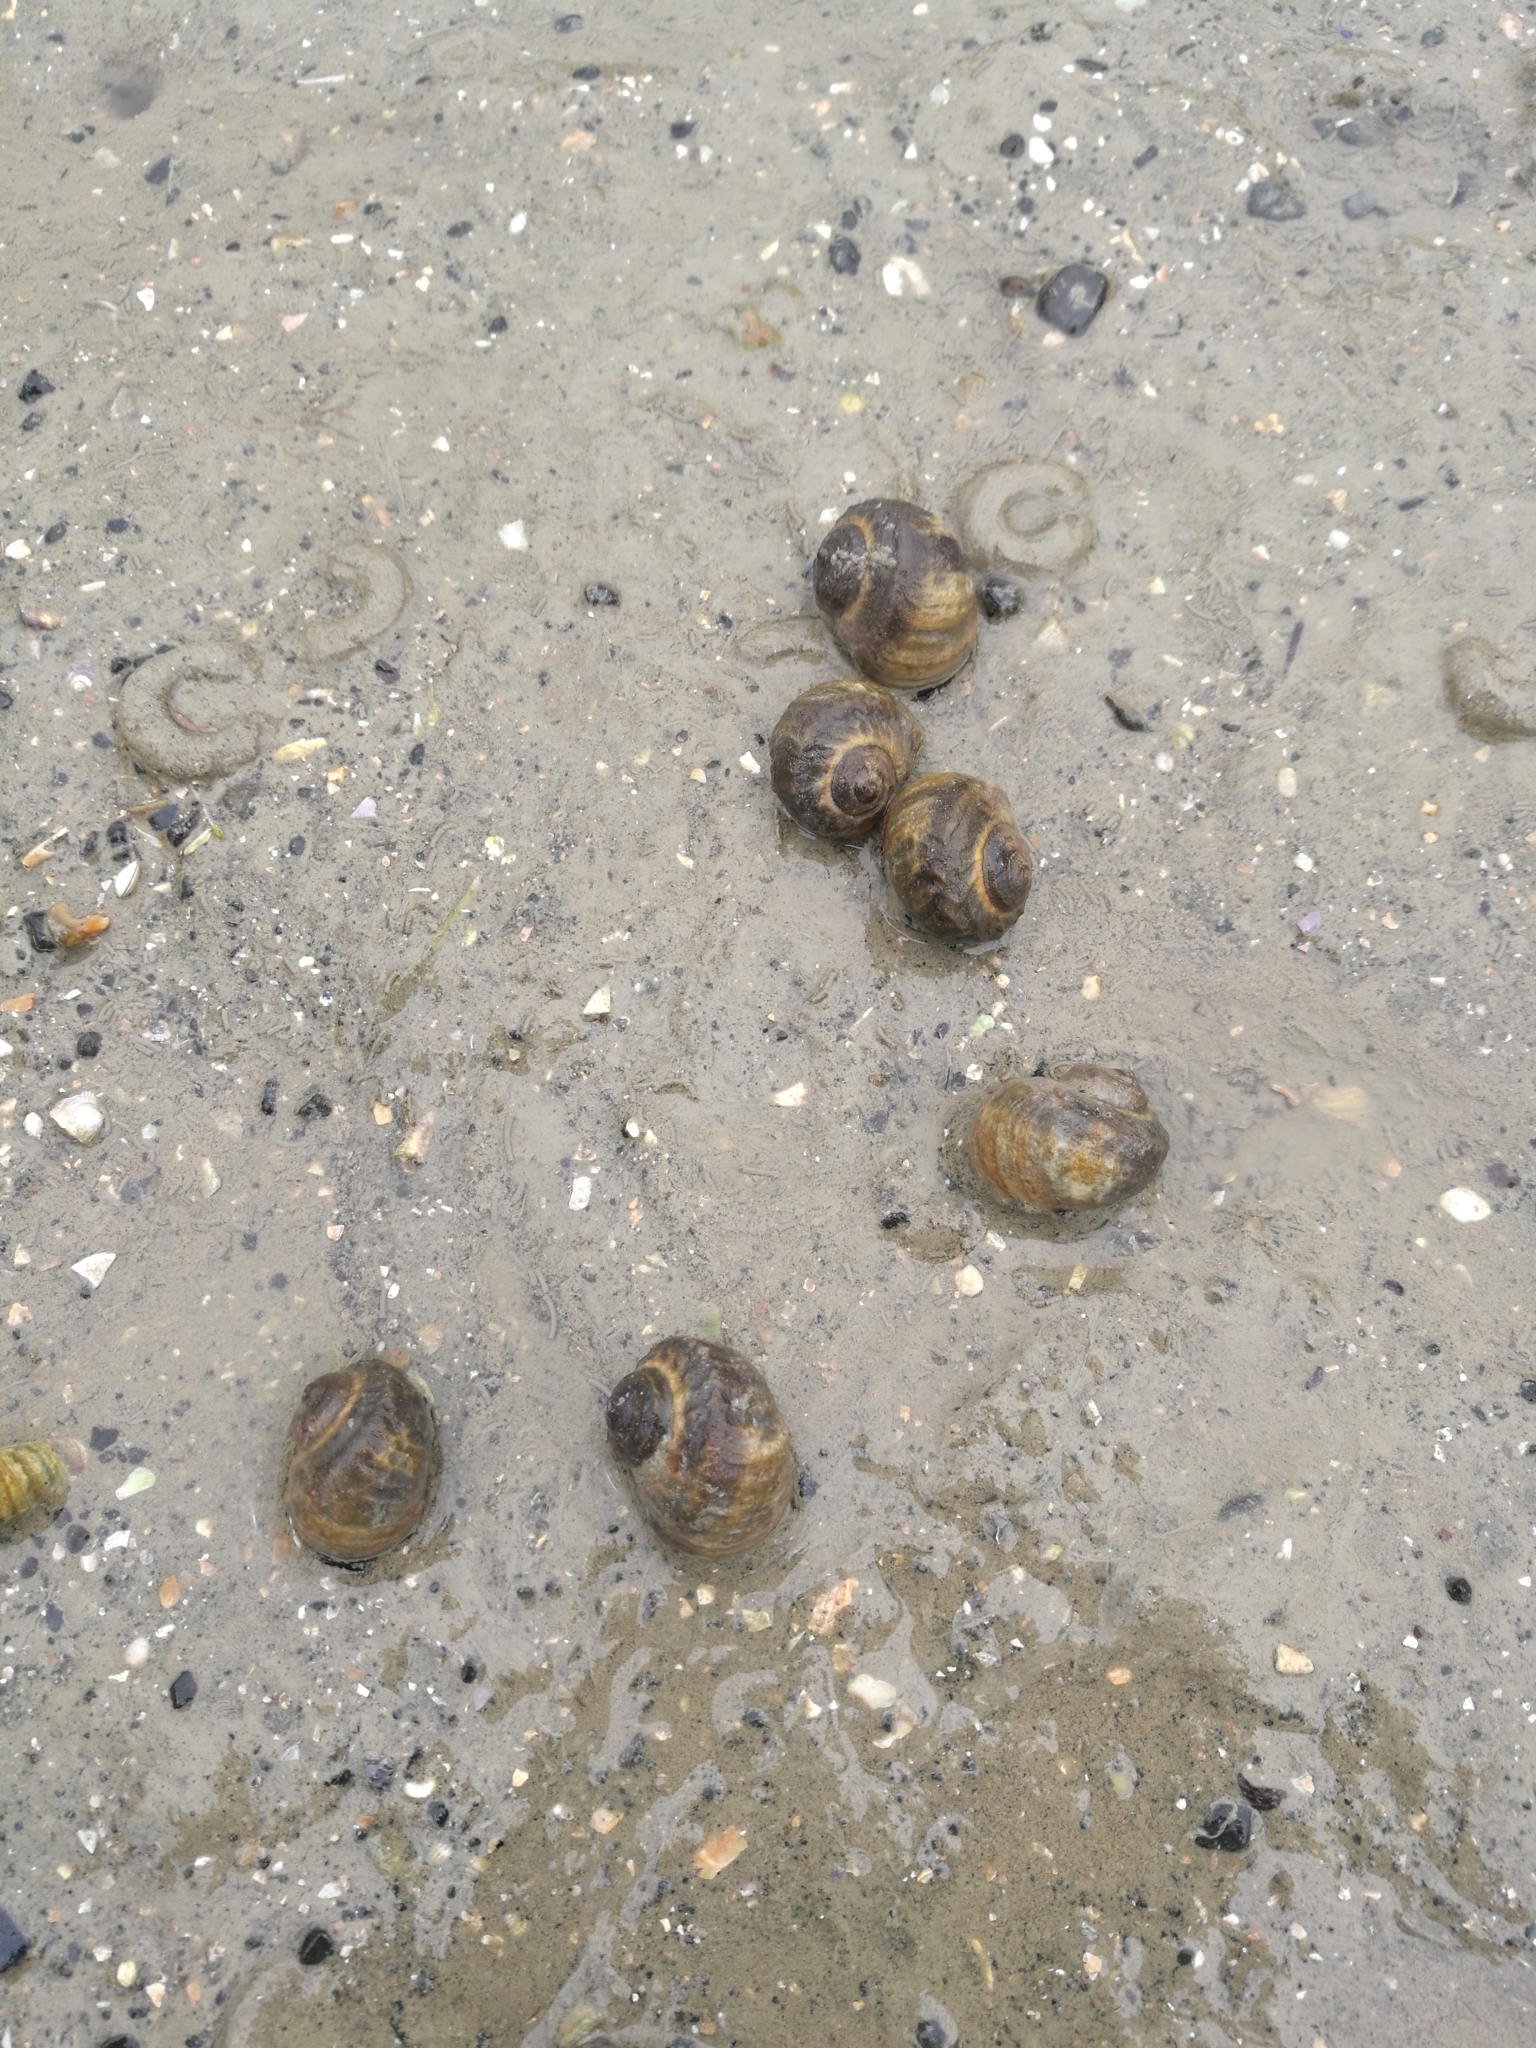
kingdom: Animalia
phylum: Mollusca
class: Gastropoda
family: Amphibolidae
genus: Amphibola
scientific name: Amphibola crenata
